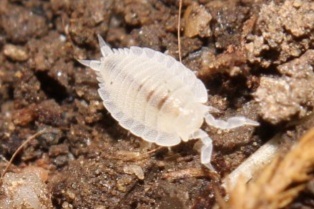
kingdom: Animalia
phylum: Arthropoda
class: Malacostraca
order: Isopoda
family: Platyarthridae
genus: Platyarthrus
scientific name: Platyarthrus hoffmannseggii
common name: Ant woodlouse
